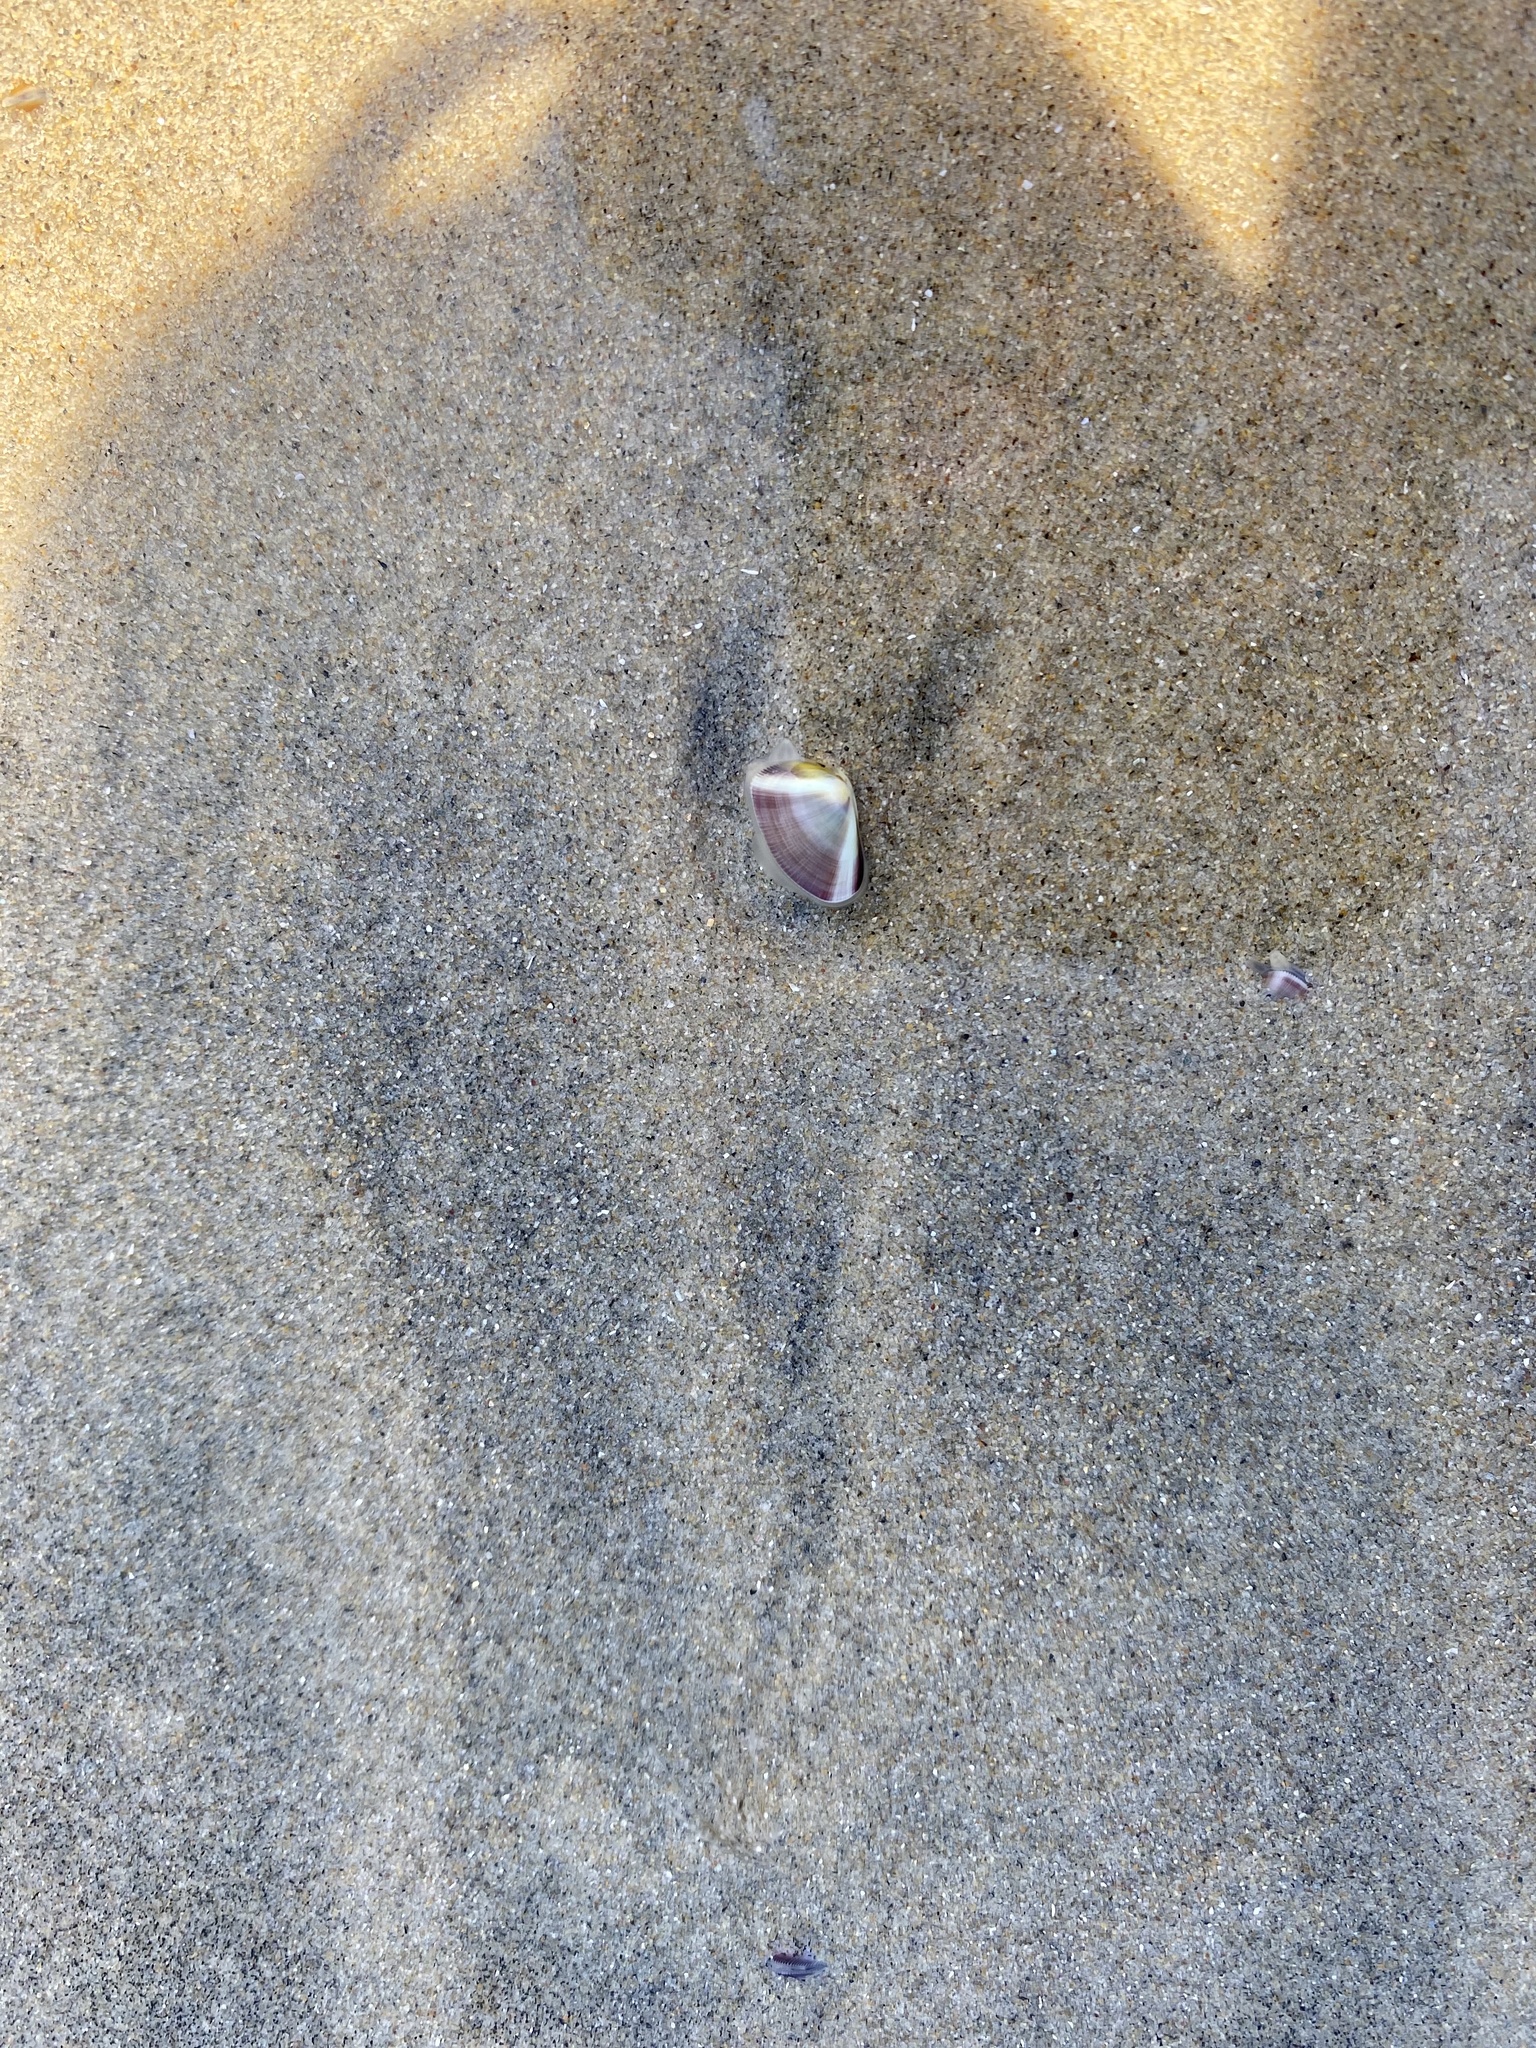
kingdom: Animalia
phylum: Mollusca
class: Bivalvia
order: Cardiida
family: Donacidae
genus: Donax
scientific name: Donax gouldii
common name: Gould beanclam
